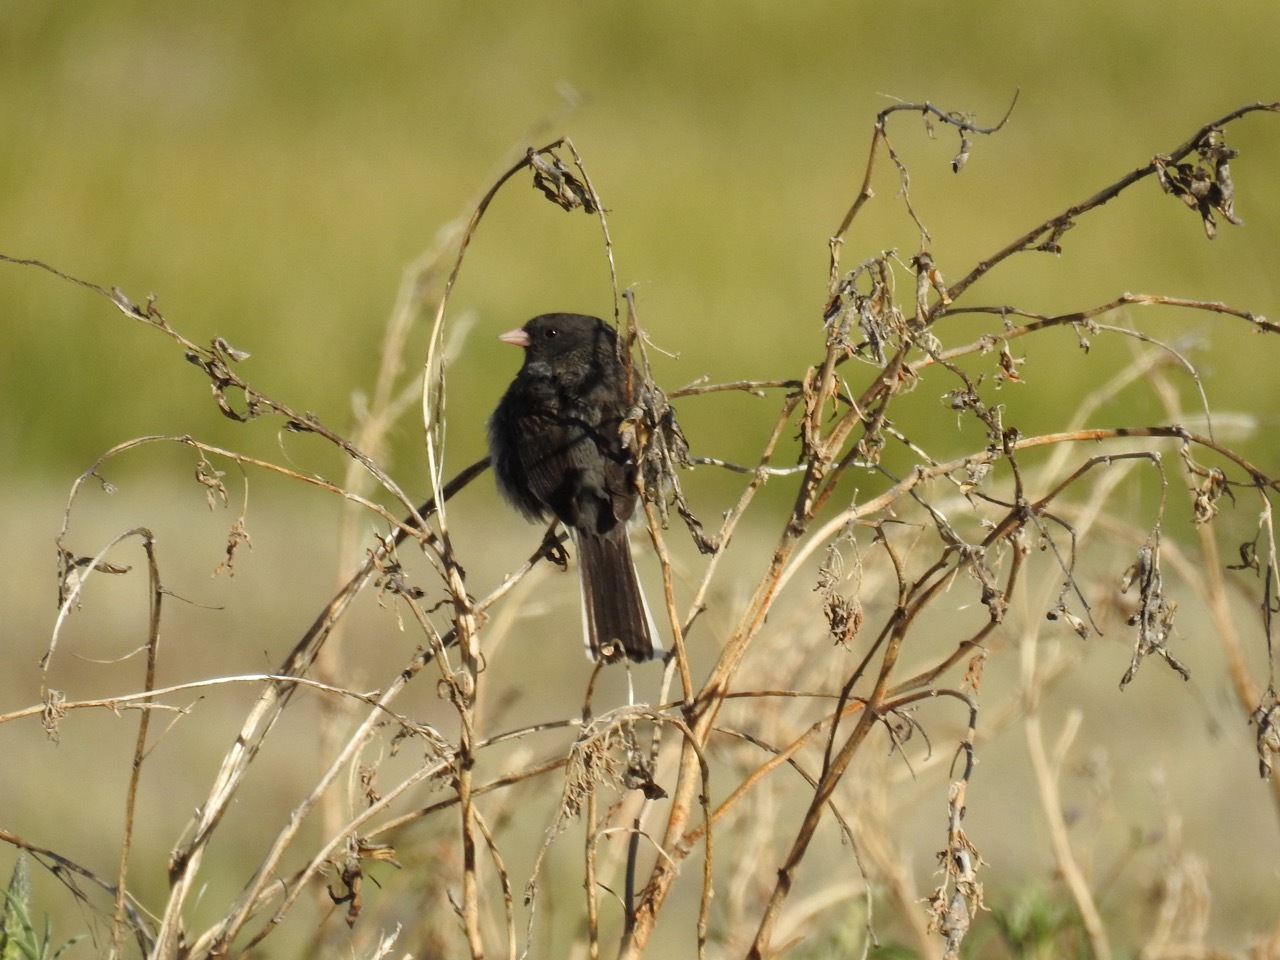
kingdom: Animalia
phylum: Chordata
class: Aves
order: Passeriformes
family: Passerellidae
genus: Junco
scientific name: Junco hyemalis
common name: Dark-eyed junco
